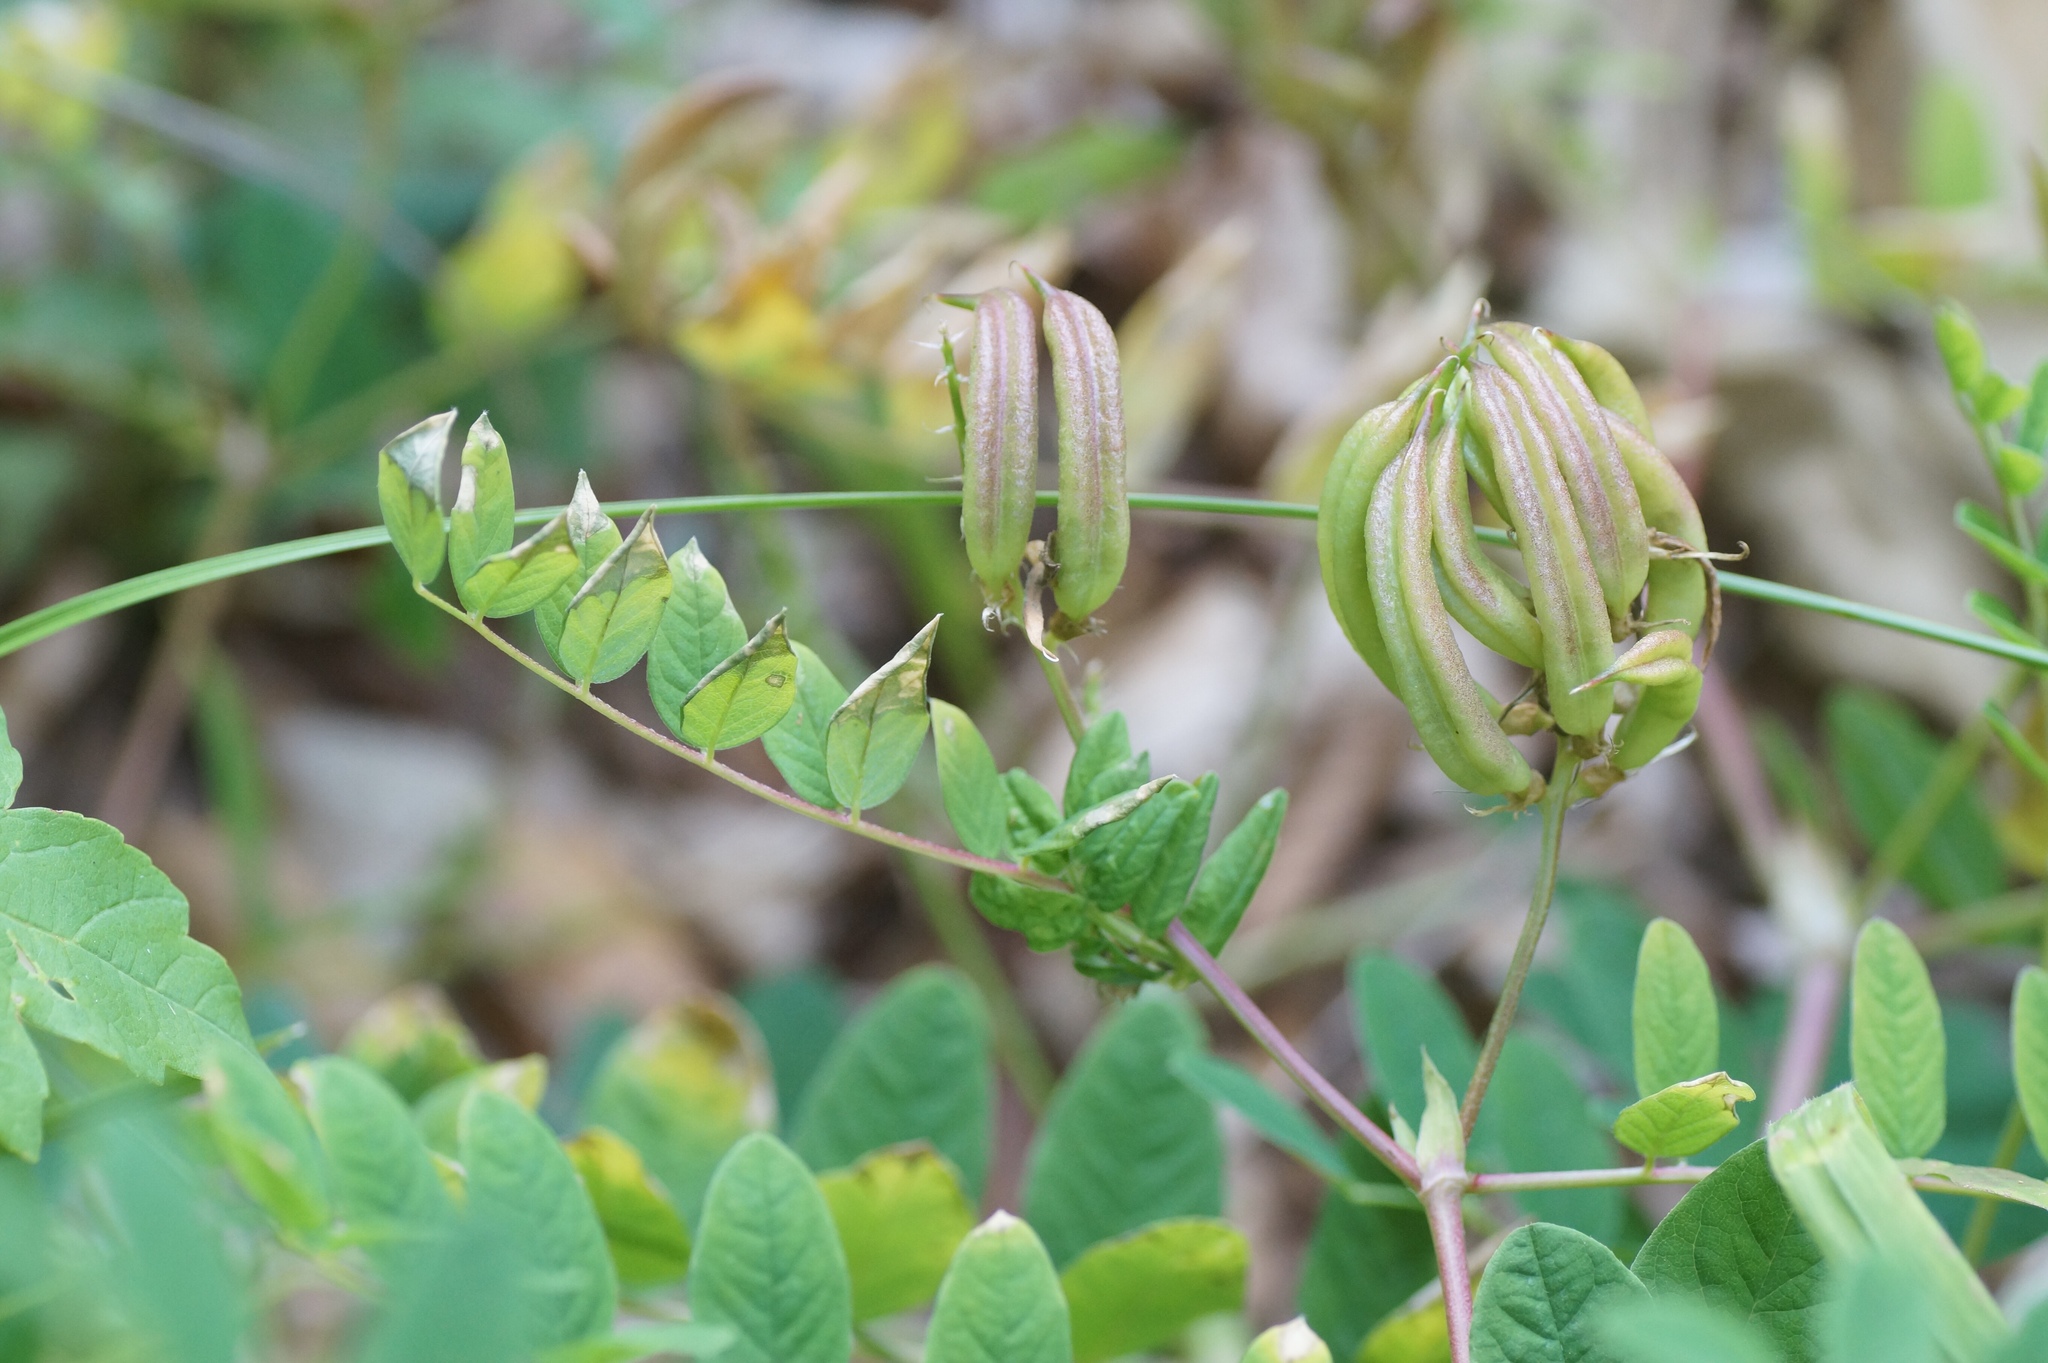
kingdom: Plantae
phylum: Tracheophyta
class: Magnoliopsida
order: Fabales
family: Fabaceae
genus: Astragalus
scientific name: Astragalus glycyphyllos
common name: Wild liquorice
